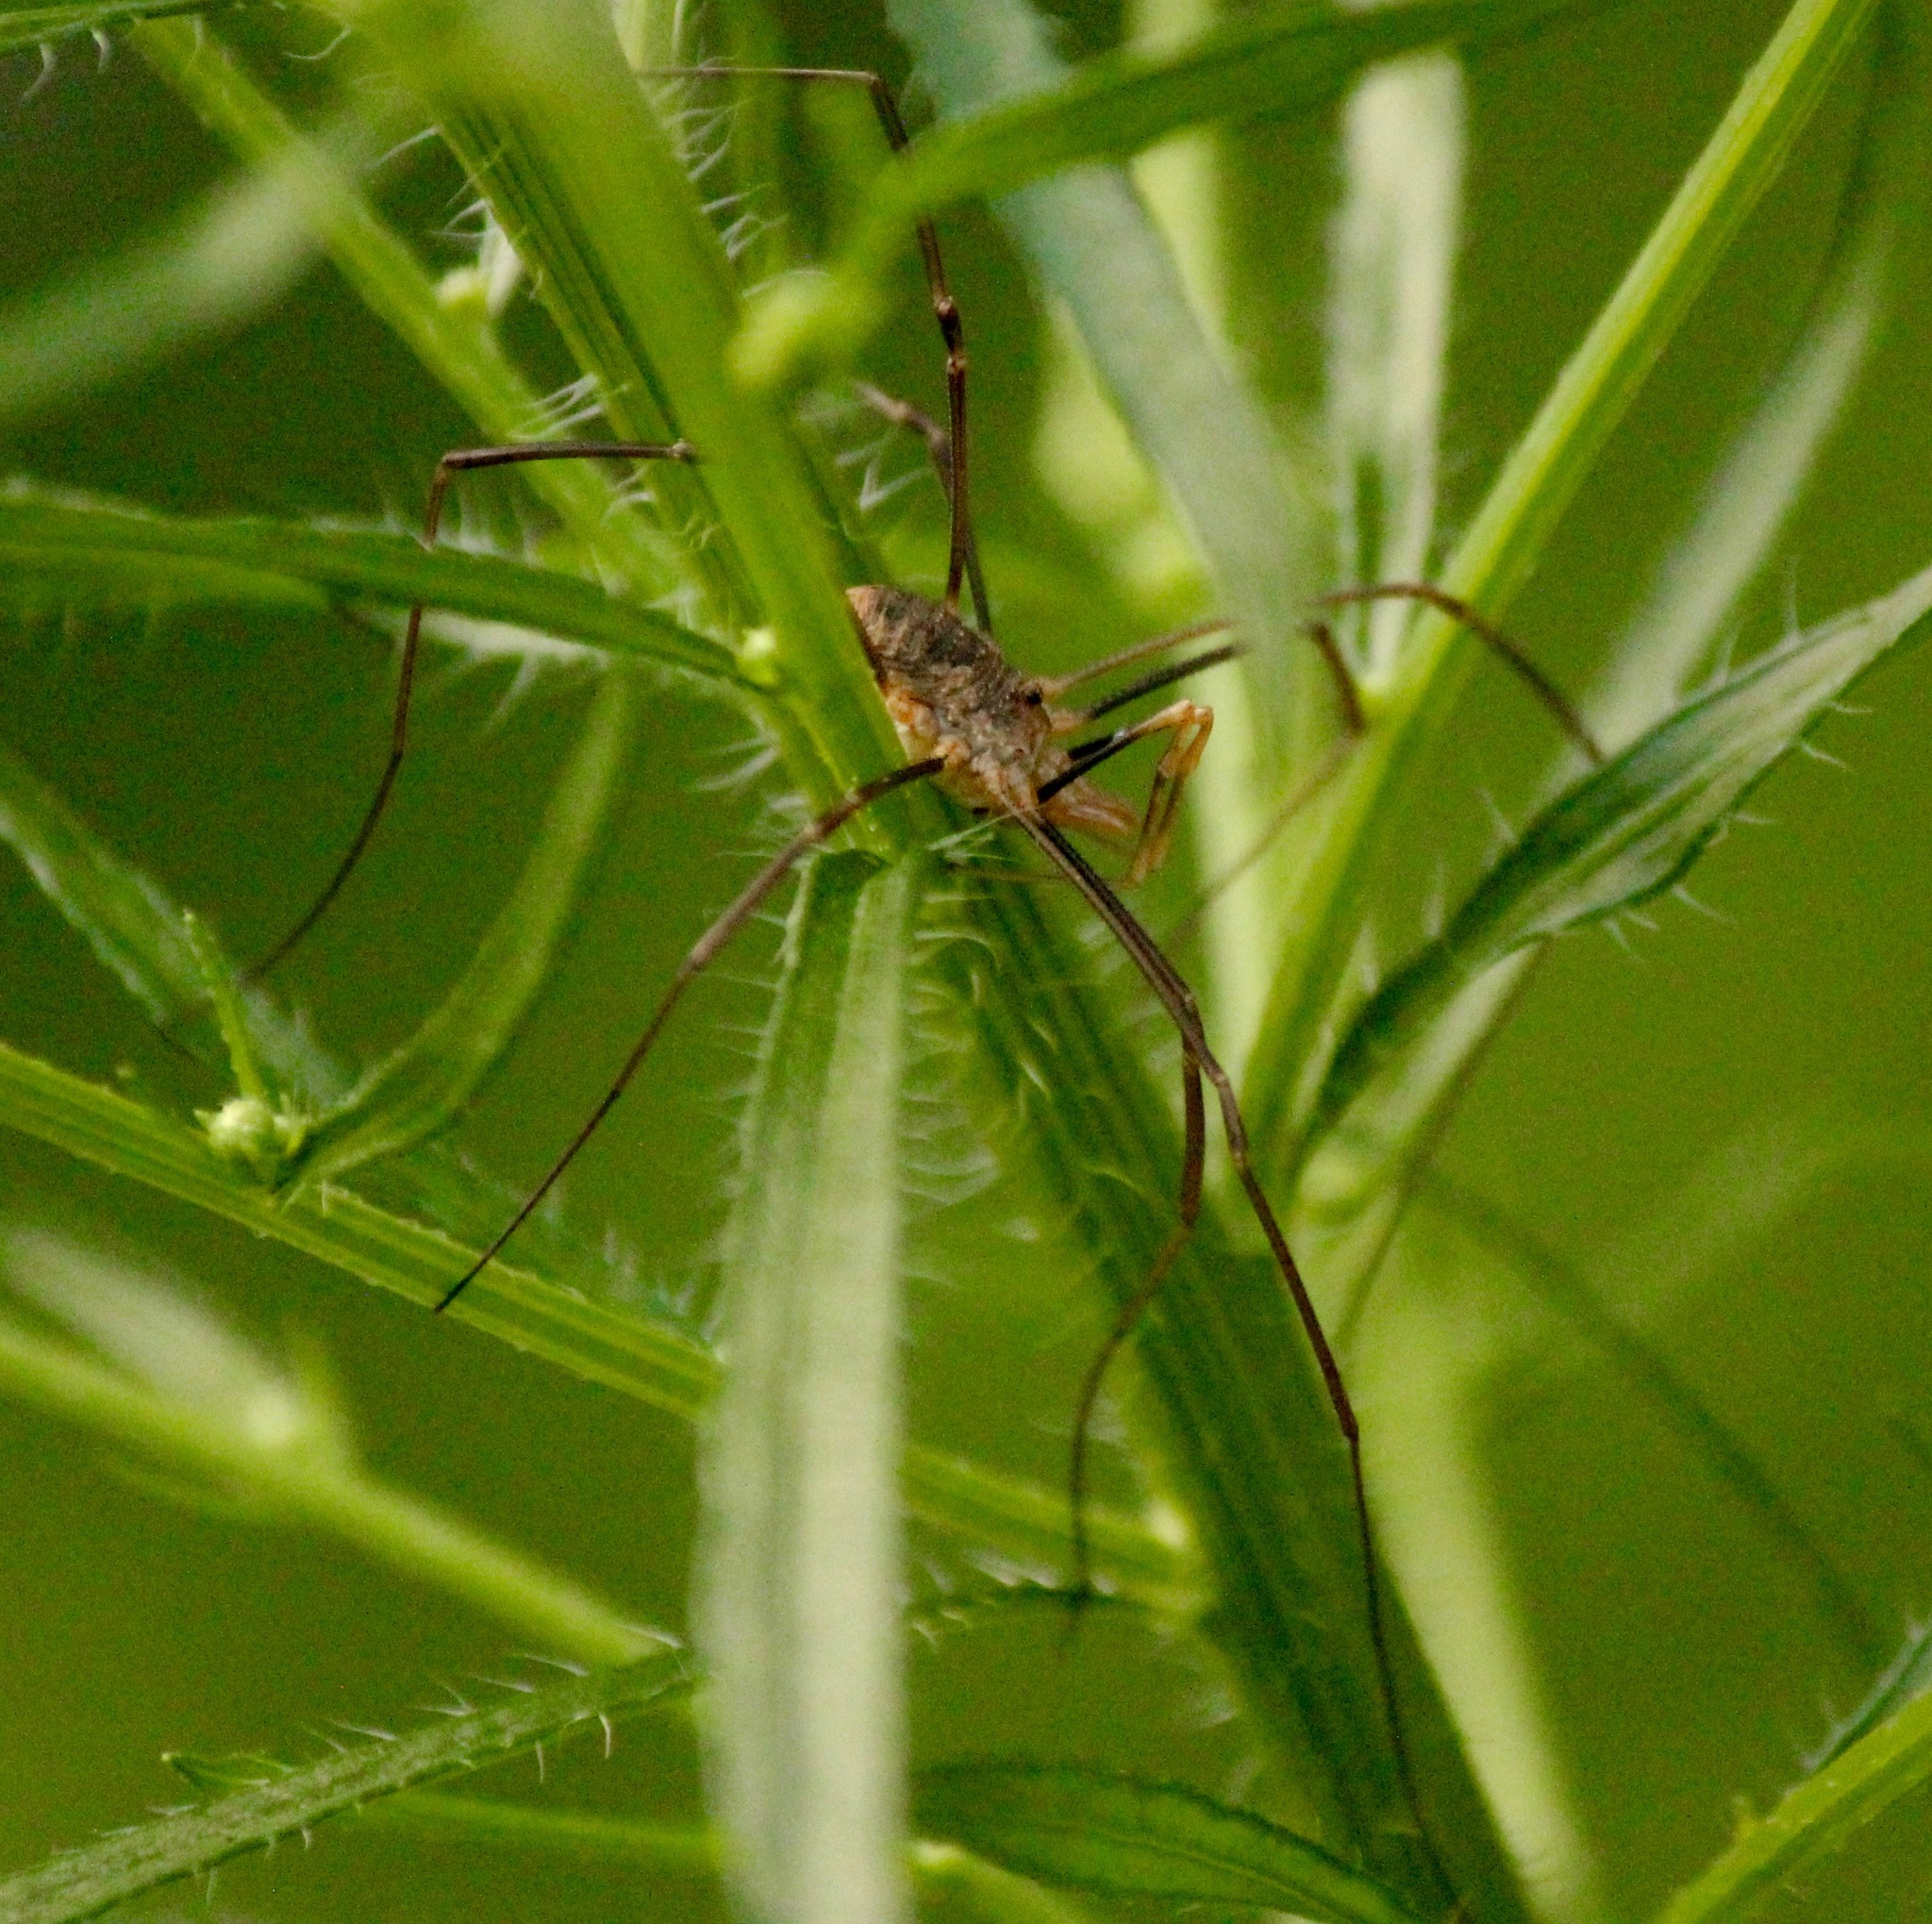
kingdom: Animalia
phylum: Arthropoda
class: Arachnida
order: Opiliones
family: Phalangiidae
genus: Phalangium
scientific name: Phalangium opilio
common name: Daddy longleg
